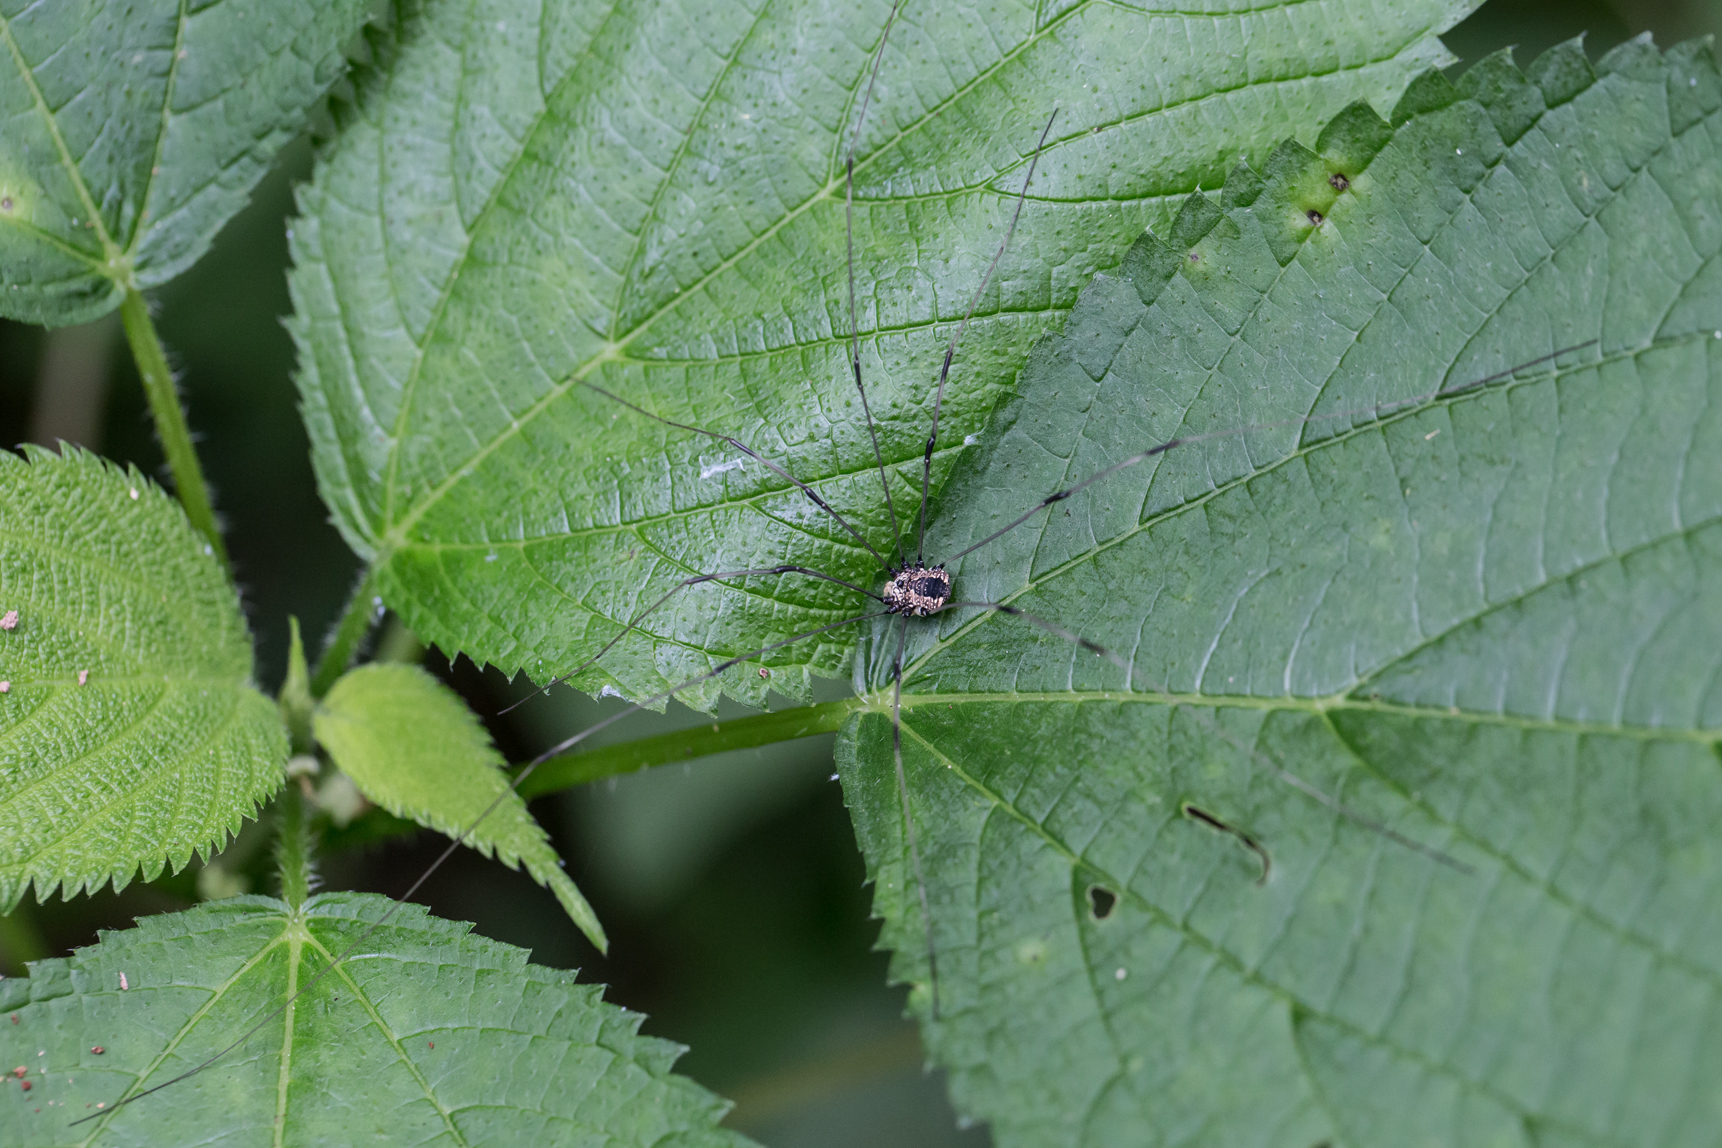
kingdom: Animalia
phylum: Arthropoda
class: Arachnida
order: Opiliones
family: Sclerosomatidae
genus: Leiobunum
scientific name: Leiobunum vittatum
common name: Eastern harvestman
